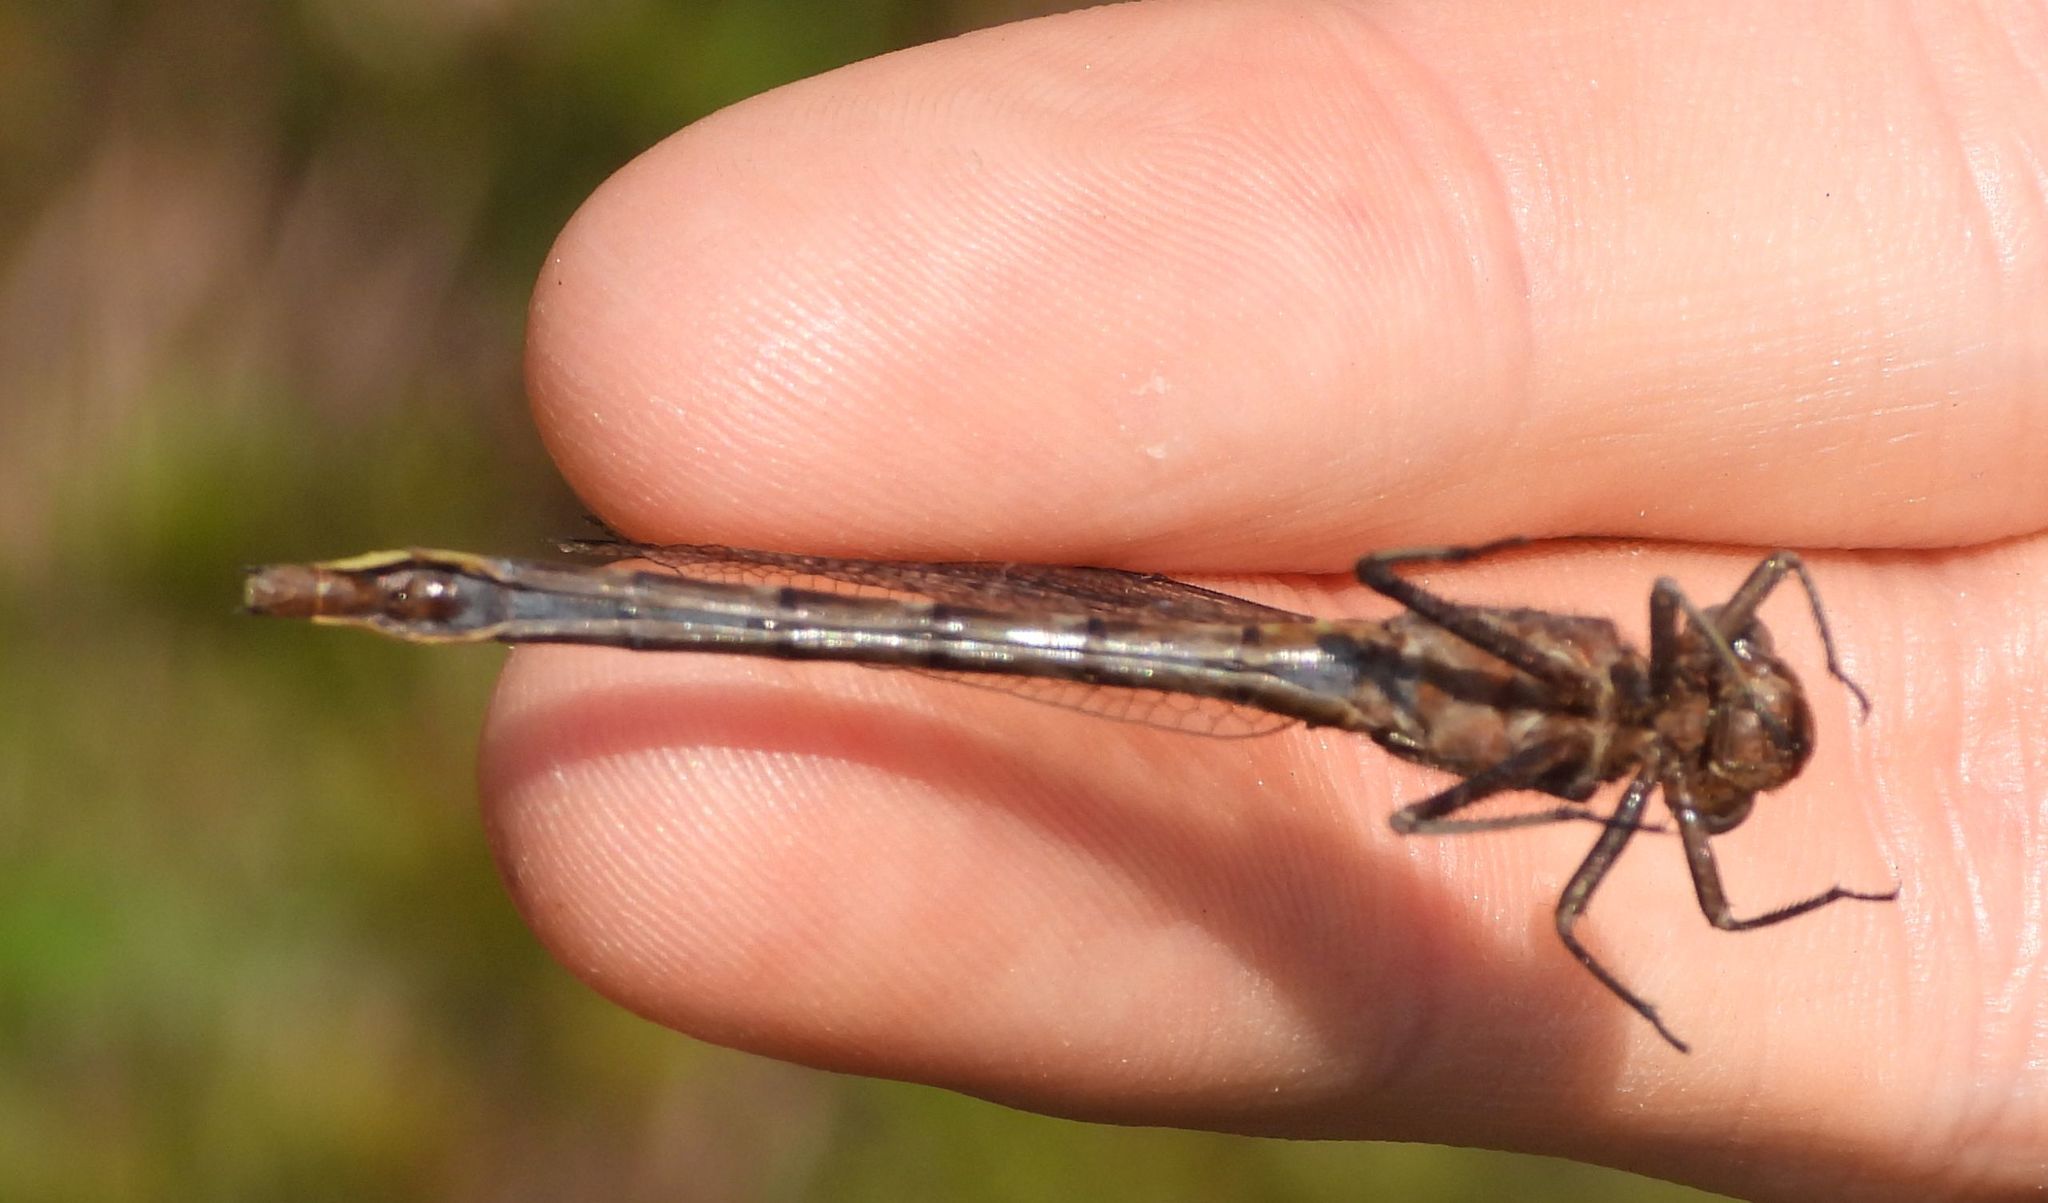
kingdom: Animalia
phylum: Arthropoda
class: Insecta
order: Odonata
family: Gomphidae
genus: Phanogomphus
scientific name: Phanogomphus spicatus
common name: Dusky clubtail
